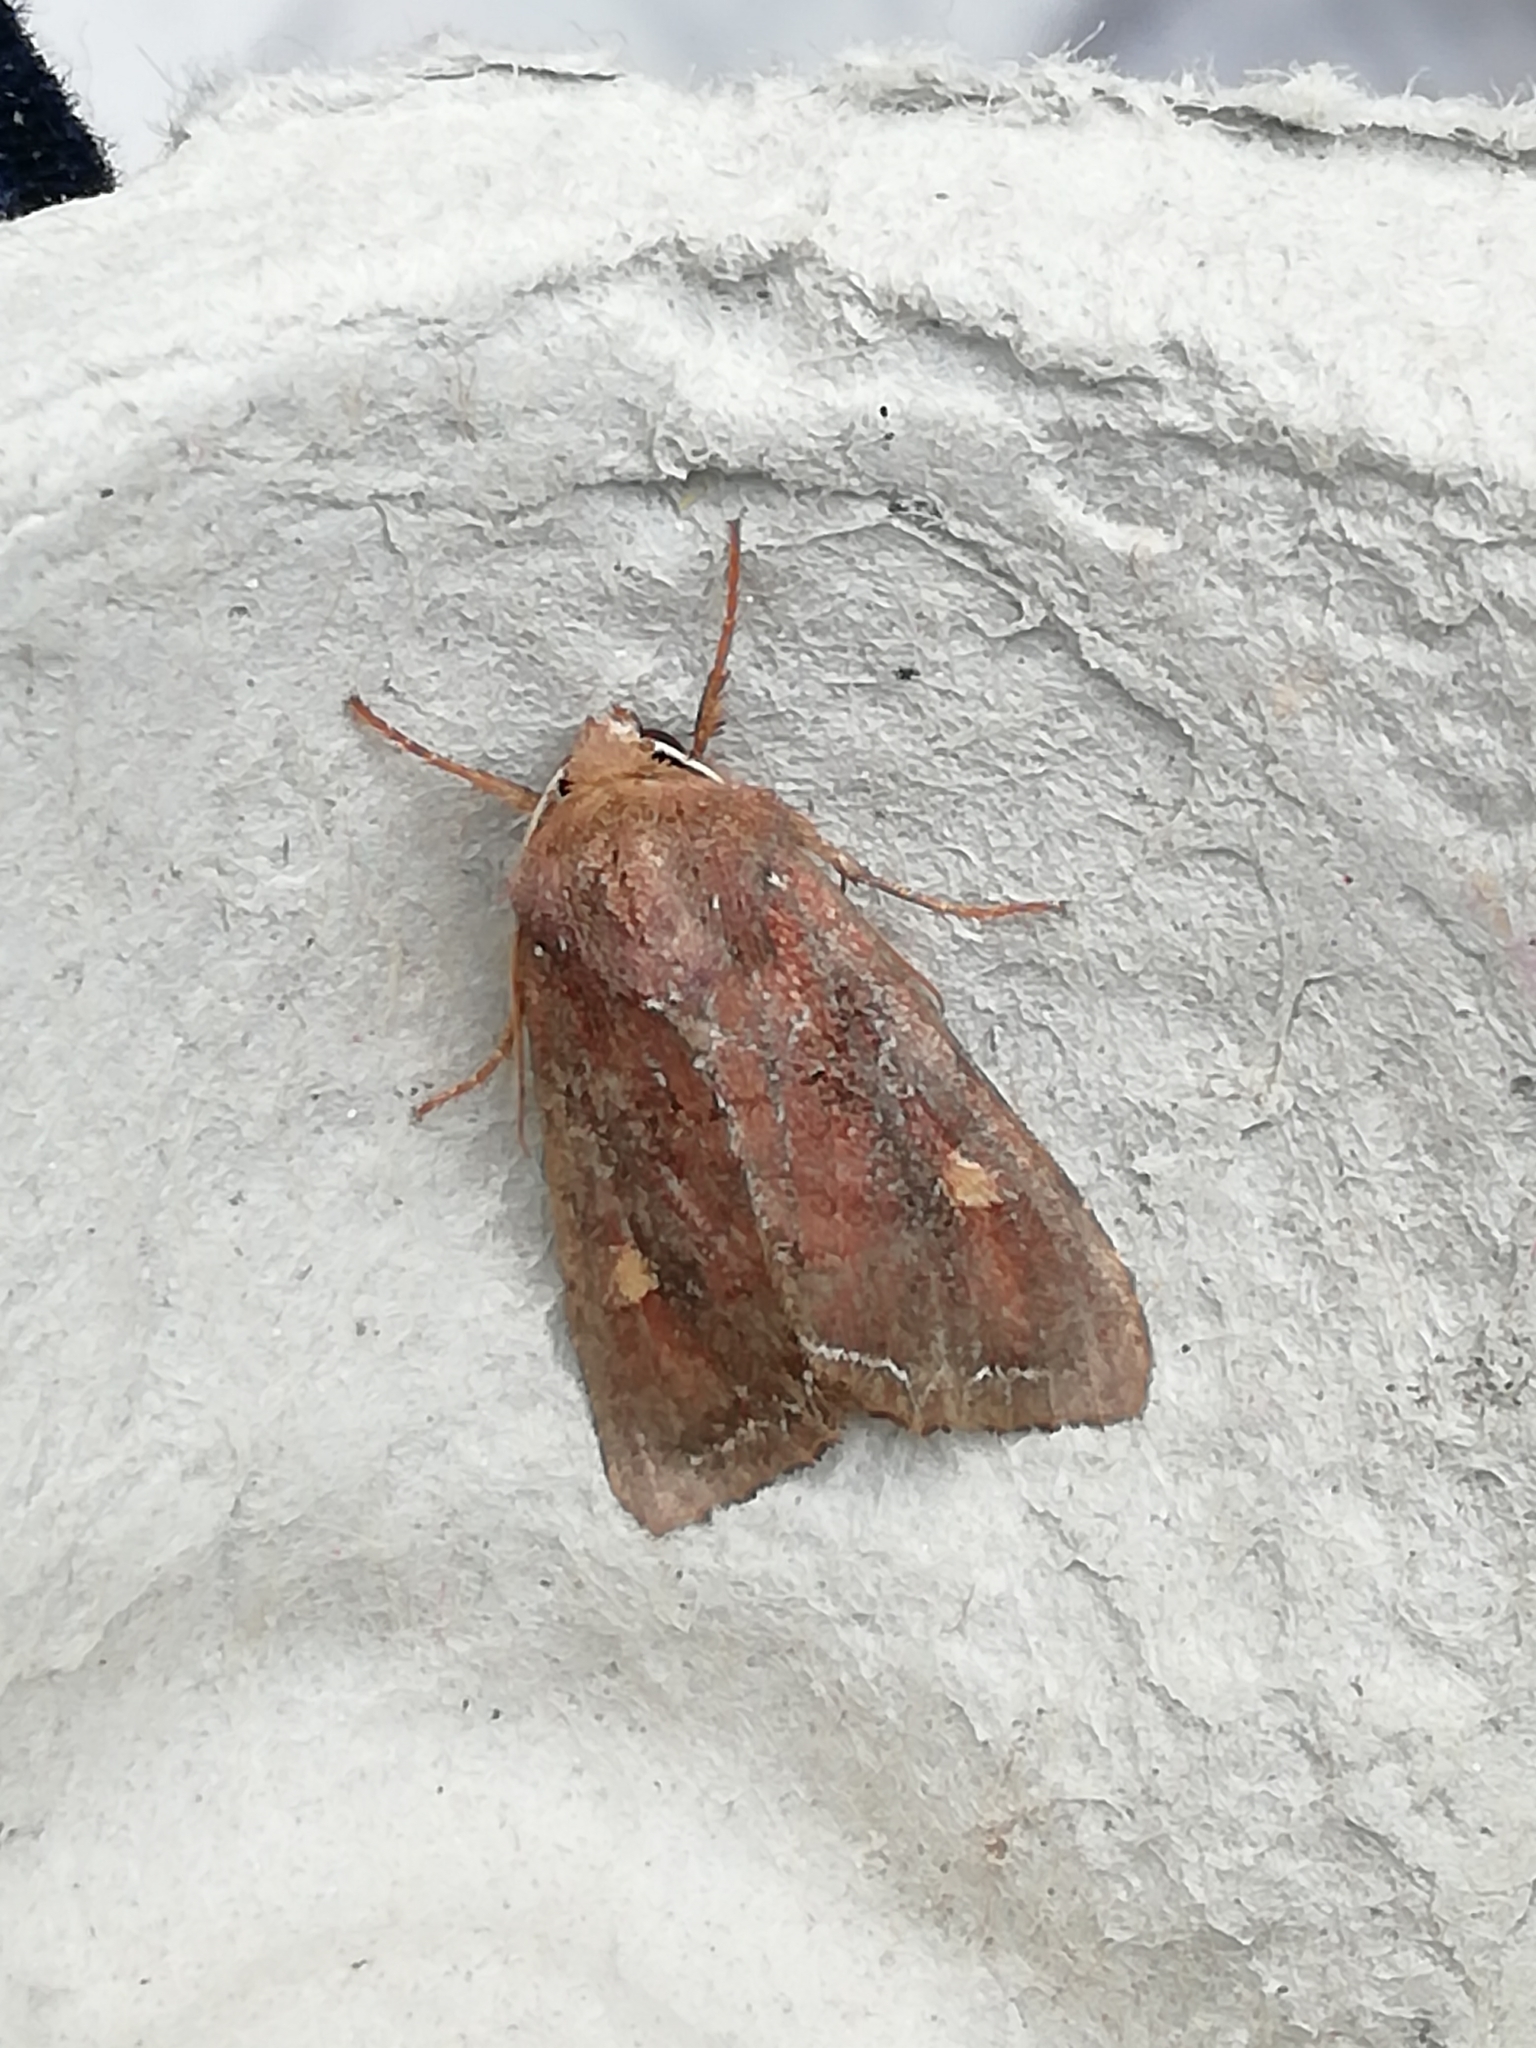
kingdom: Animalia
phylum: Arthropoda
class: Insecta
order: Lepidoptera
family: Noctuidae
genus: Lacanobia
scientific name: Lacanobia oleracea
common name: Bright-line brown-eye
